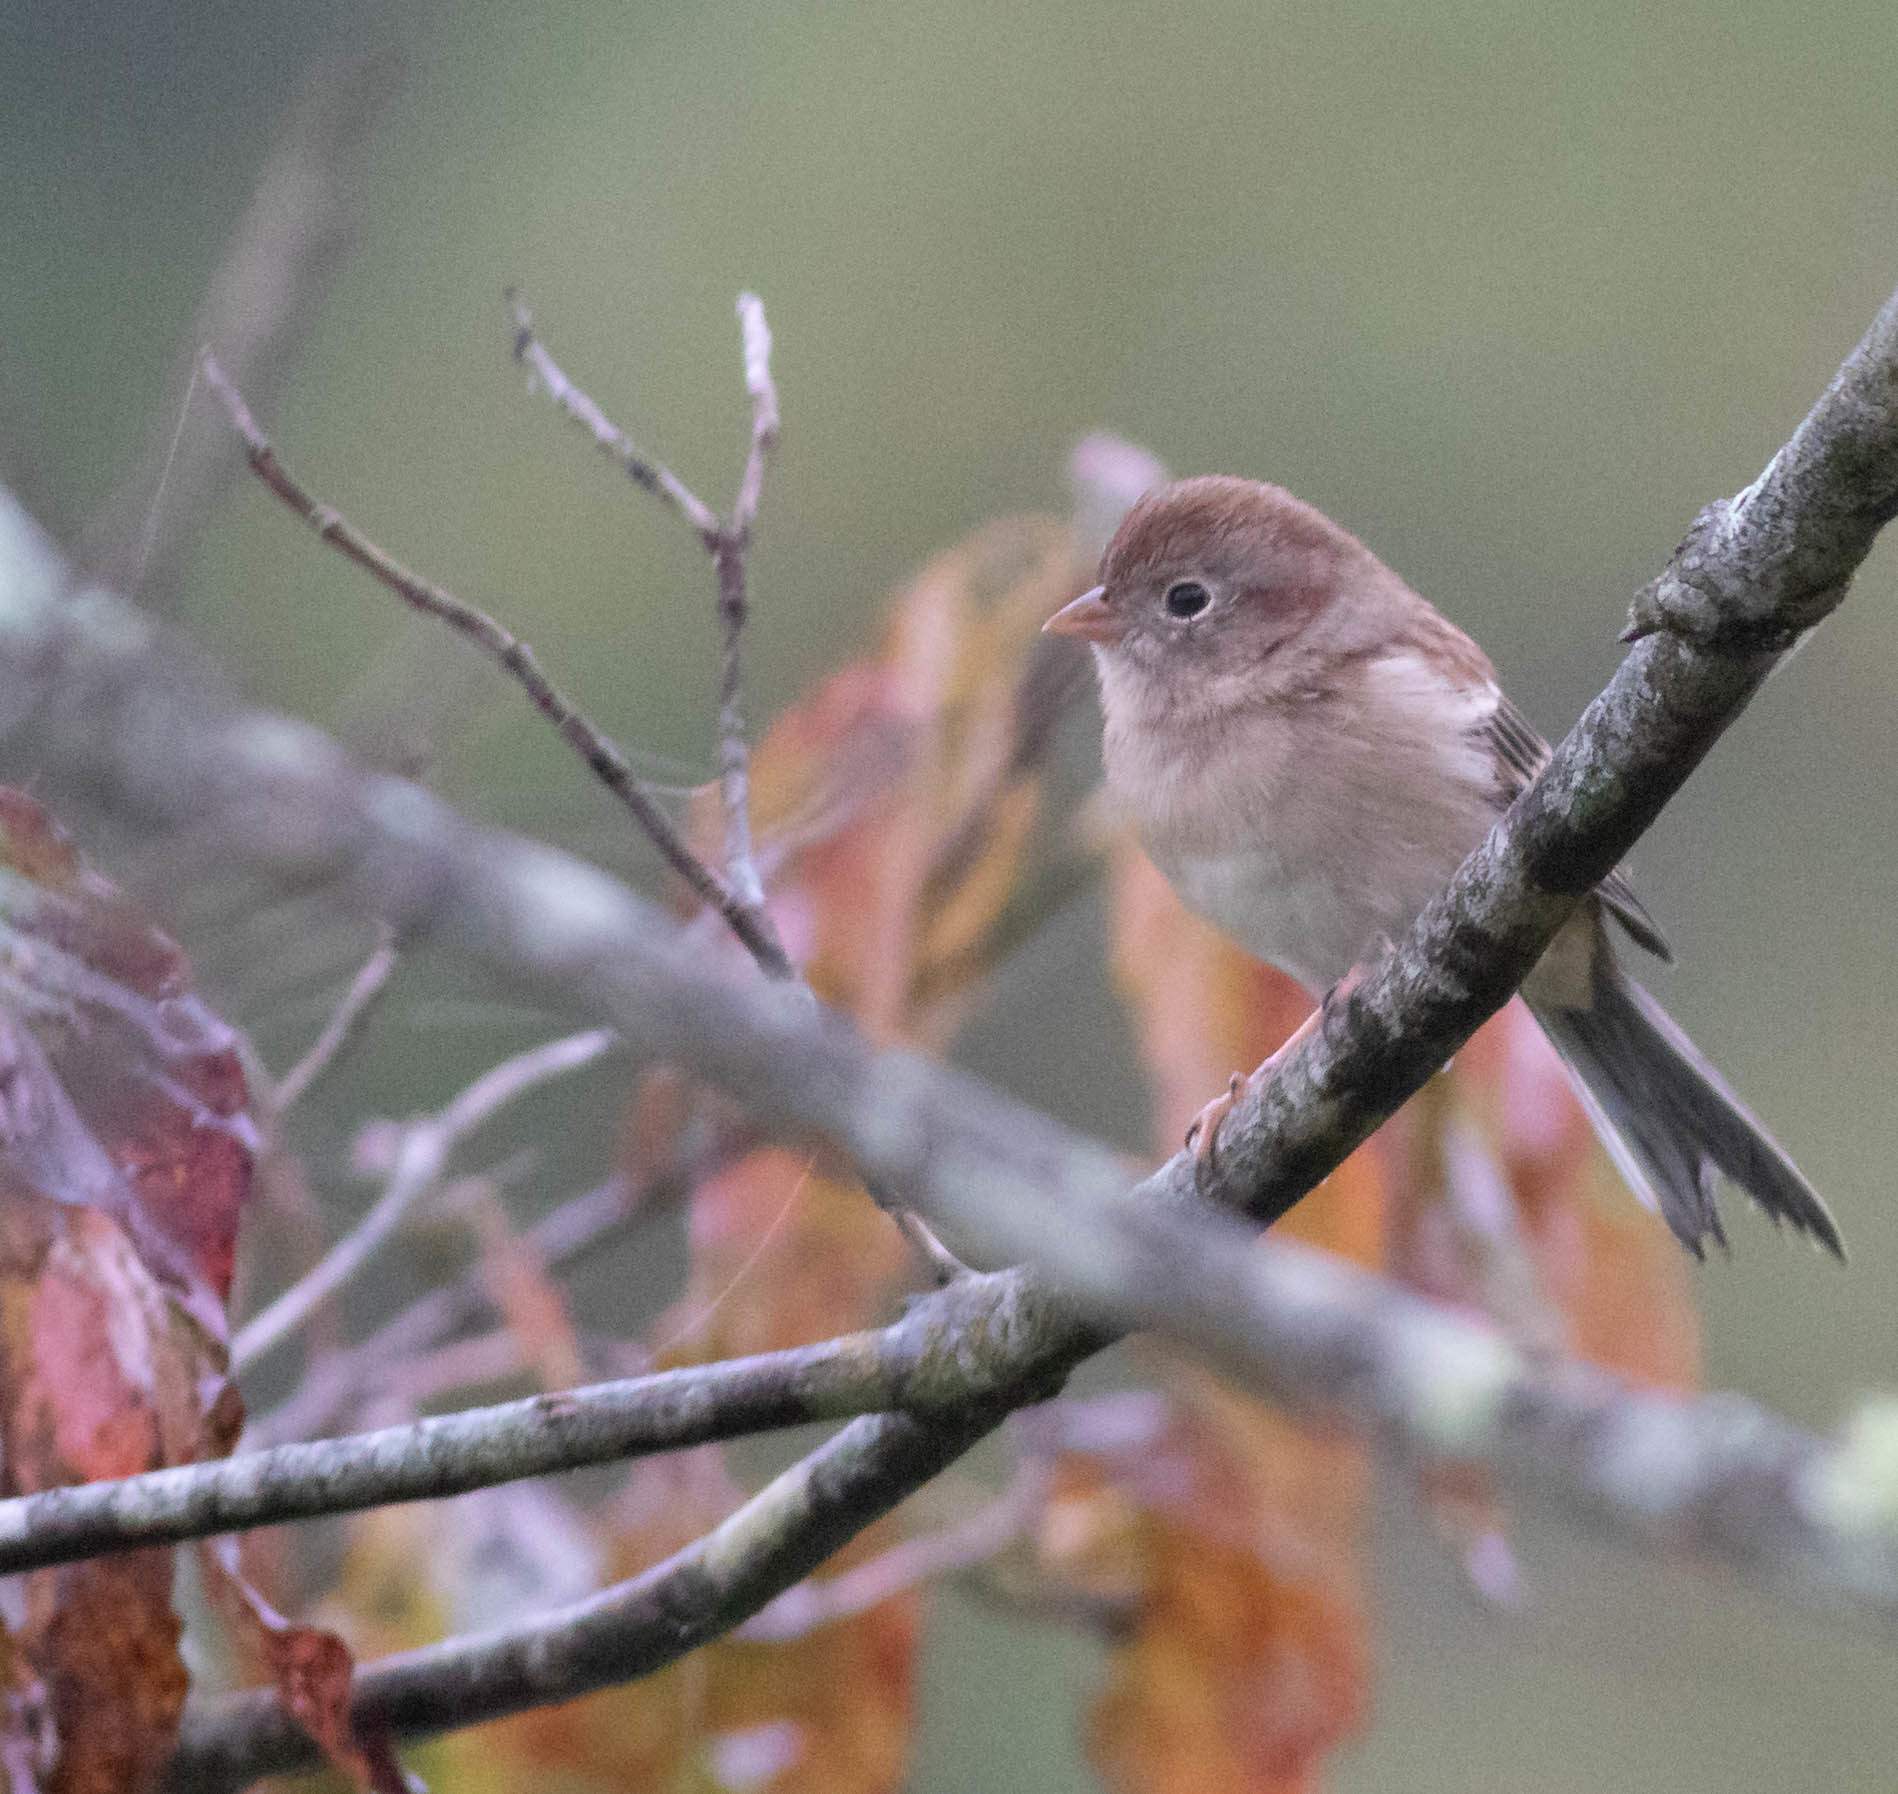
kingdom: Animalia
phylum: Chordata
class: Aves
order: Passeriformes
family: Passerellidae
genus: Spizella
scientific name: Spizella pusilla
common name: Field sparrow
